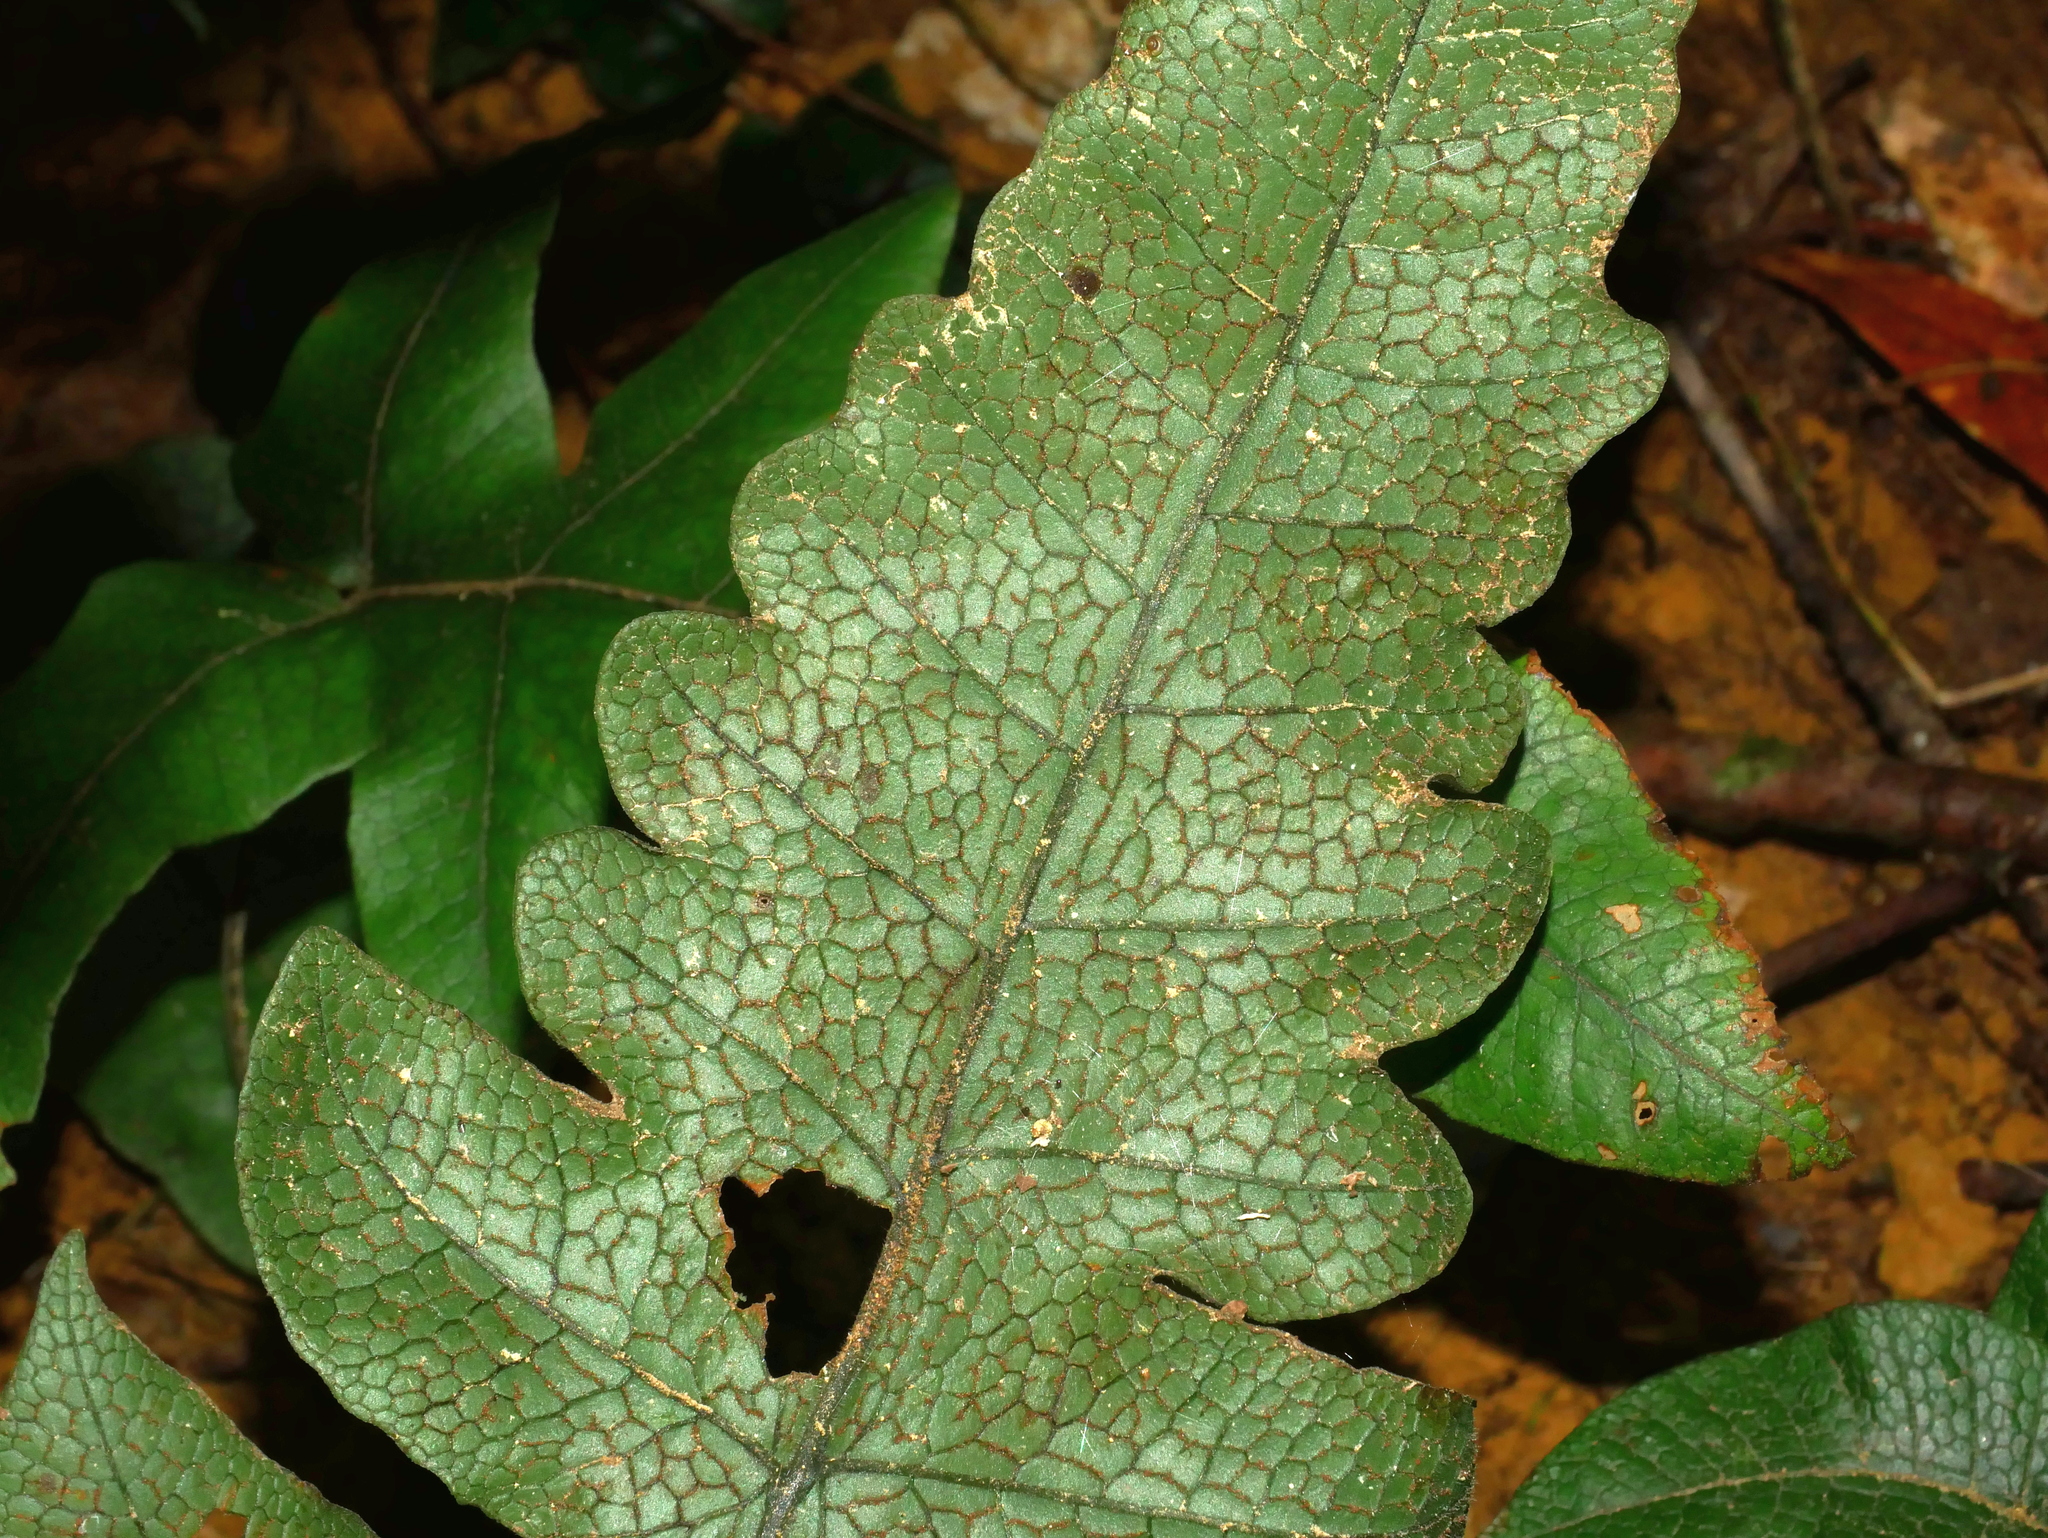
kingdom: Plantae
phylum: Tracheophyta
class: Polypodiopsida
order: Polypodiales
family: Thelypteridaceae
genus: Stegnogramma
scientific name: Stegnogramma wilfordii
